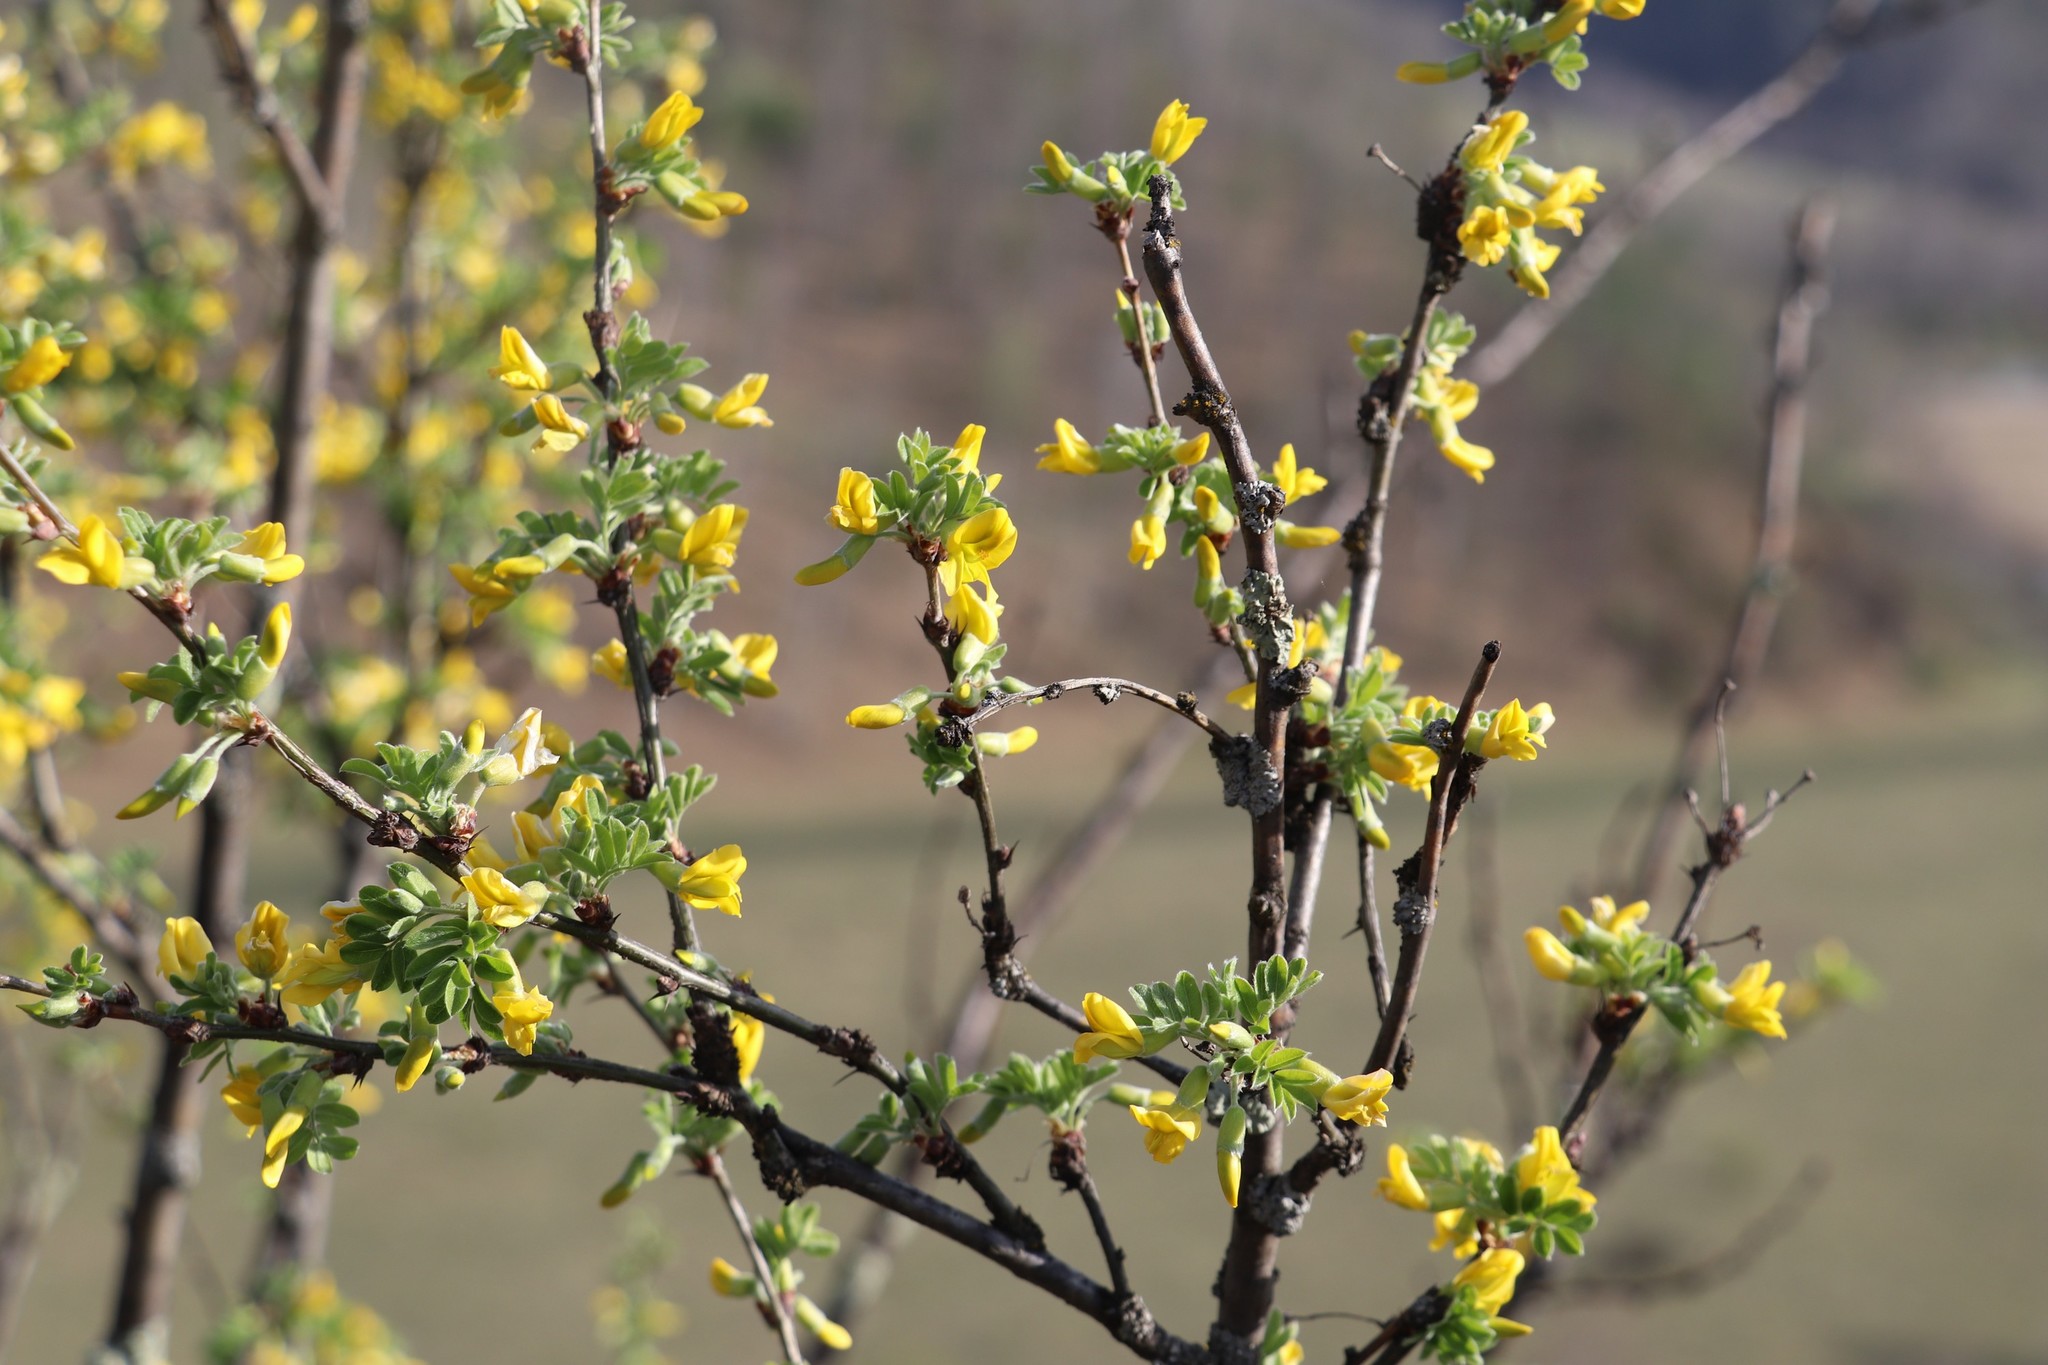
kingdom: Plantae
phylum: Tracheophyta
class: Magnoliopsida
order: Fabales
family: Fabaceae
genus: Caragana
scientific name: Caragana arborescens
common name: Siberian peashrub
